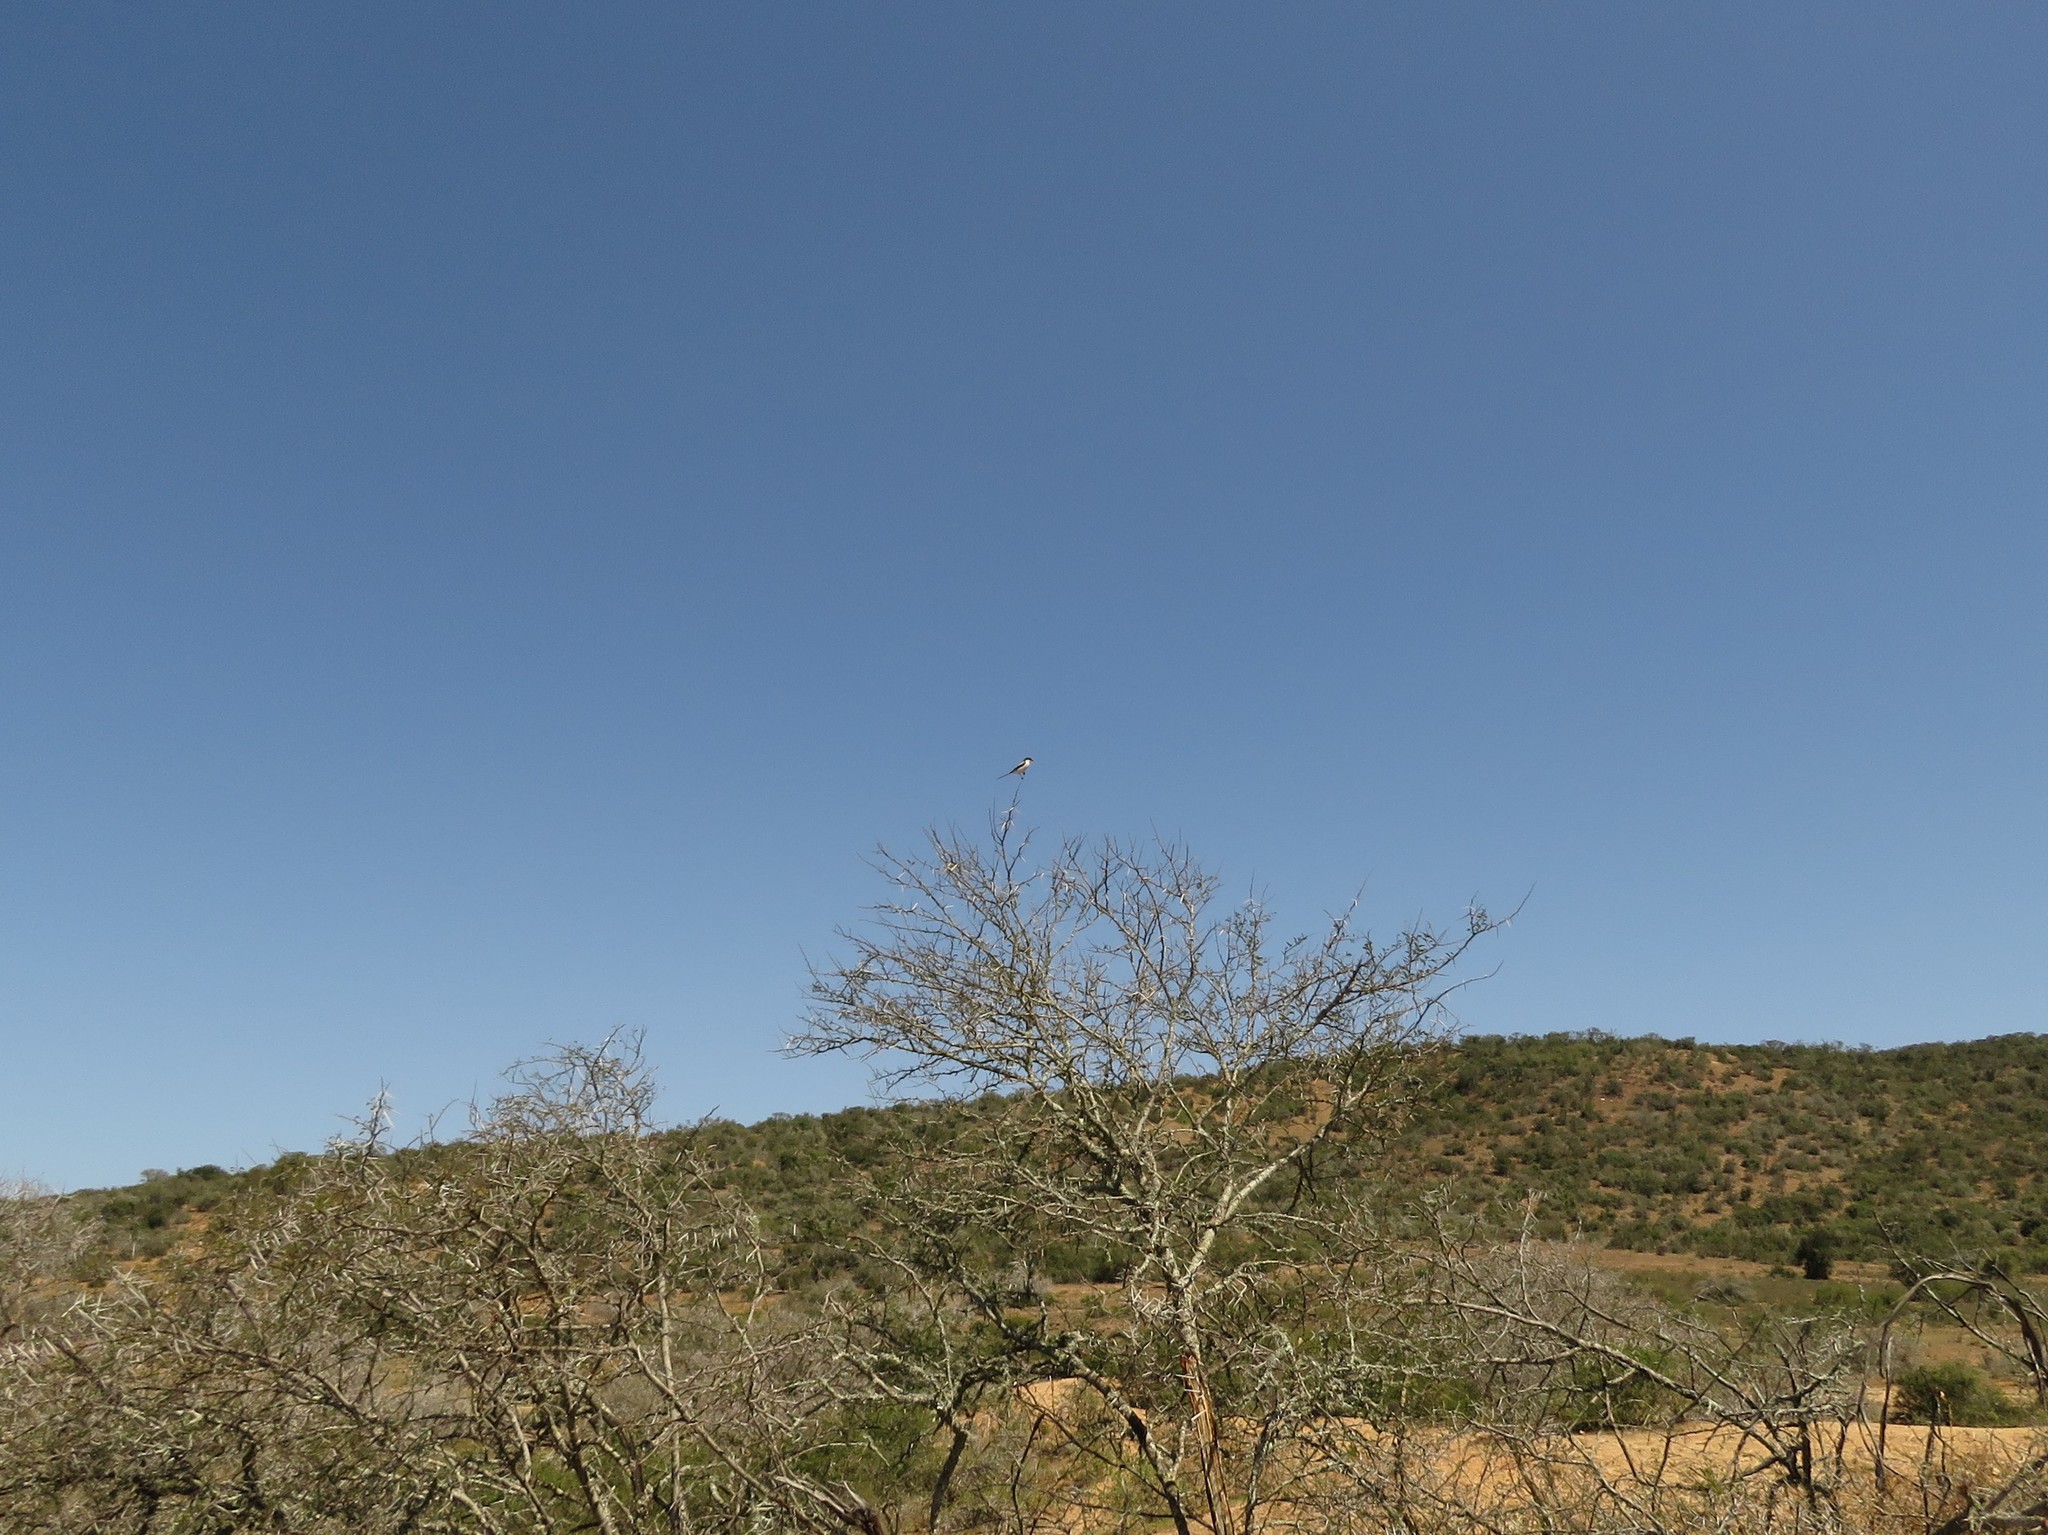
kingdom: Animalia
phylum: Chordata
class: Aves
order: Passeriformes
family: Laniidae
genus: Lanius
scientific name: Lanius collaris
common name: Southern fiscal
